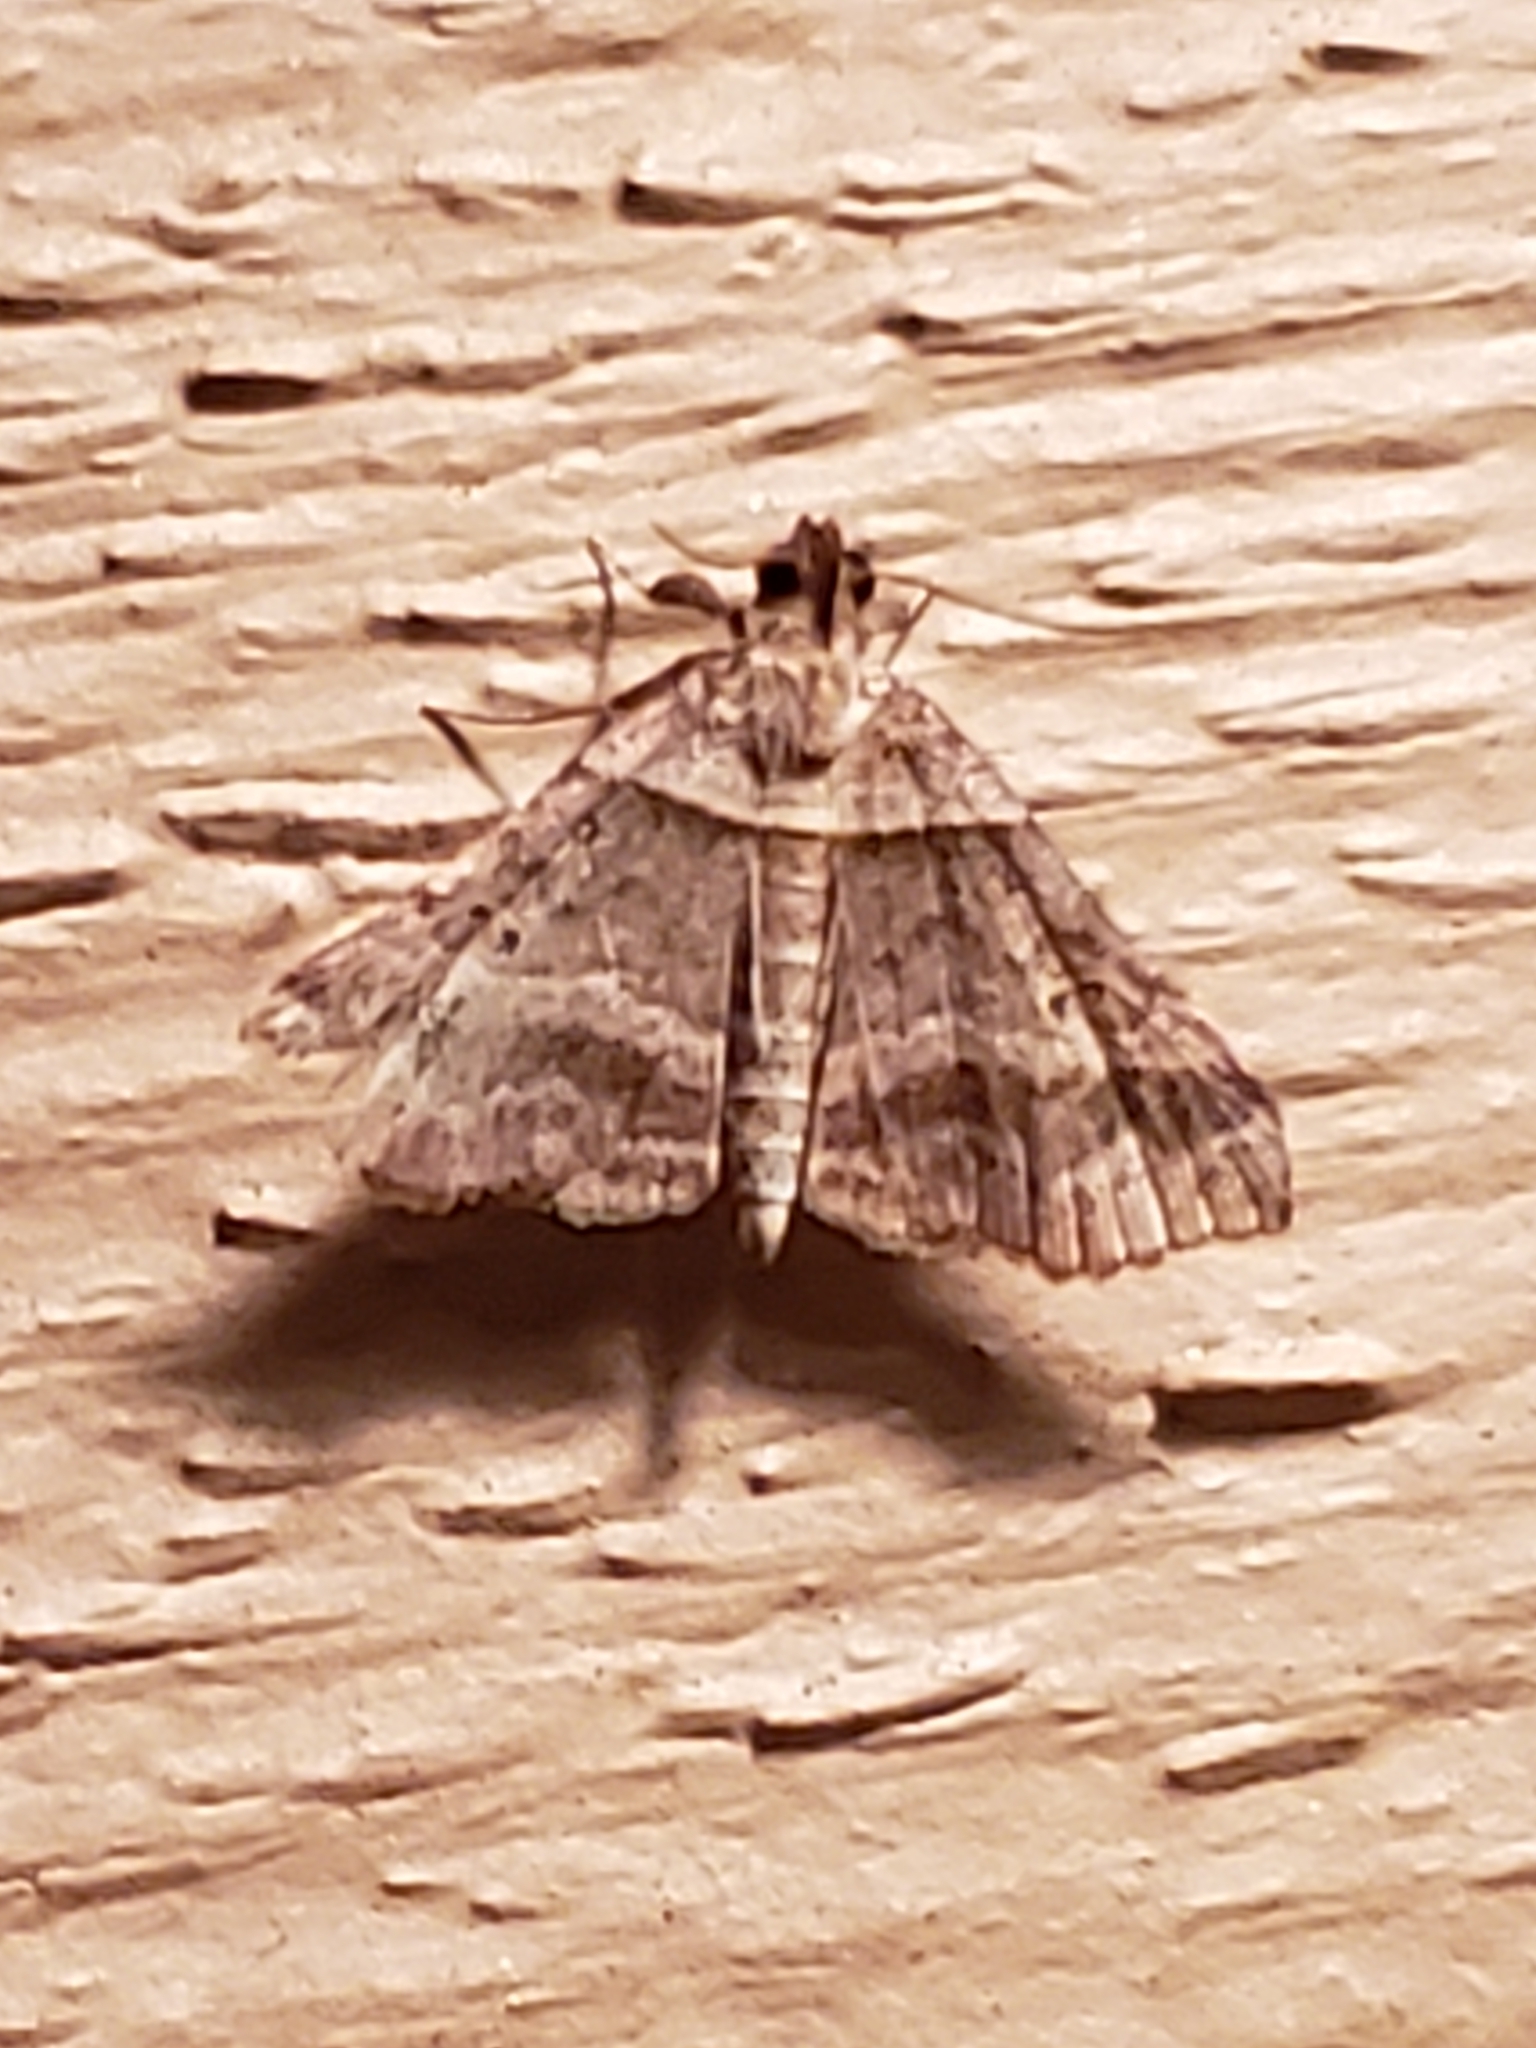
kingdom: Animalia
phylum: Arthropoda
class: Insecta
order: Lepidoptera
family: Erebidae
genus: Phaeolita
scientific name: Phaeolita pyramusalis
